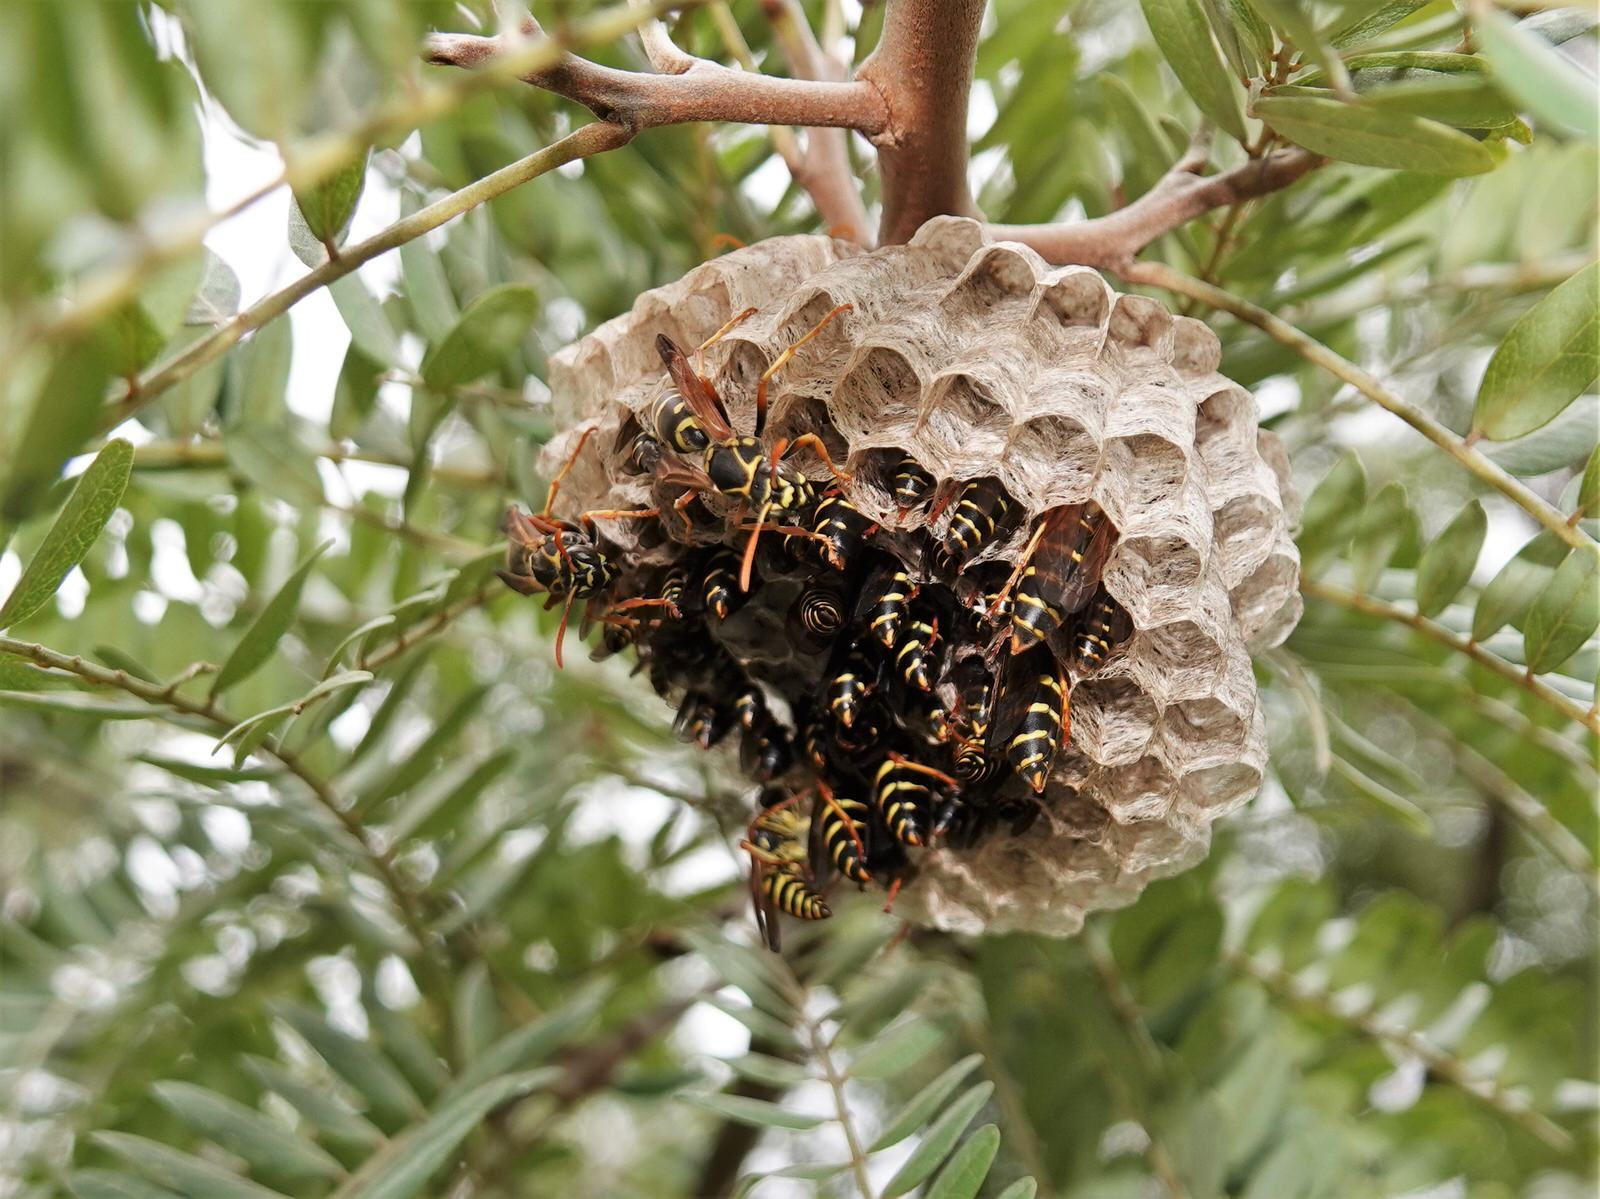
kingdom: Animalia
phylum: Arthropoda
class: Insecta
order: Hymenoptera
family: Eumenidae
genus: Polistes
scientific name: Polistes chinensis
